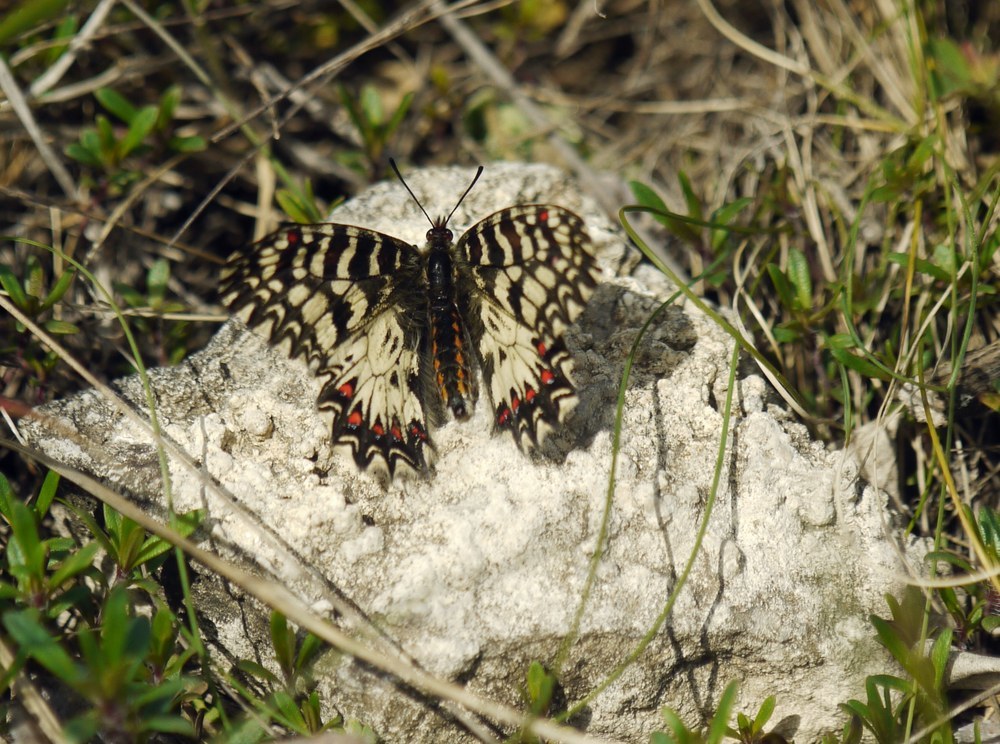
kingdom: Animalia
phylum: Arthropoda
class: Insecta
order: Lepidoptera
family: Papilionidae
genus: Zerynthia
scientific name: Zerynthia polyxena
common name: Southern festoon
